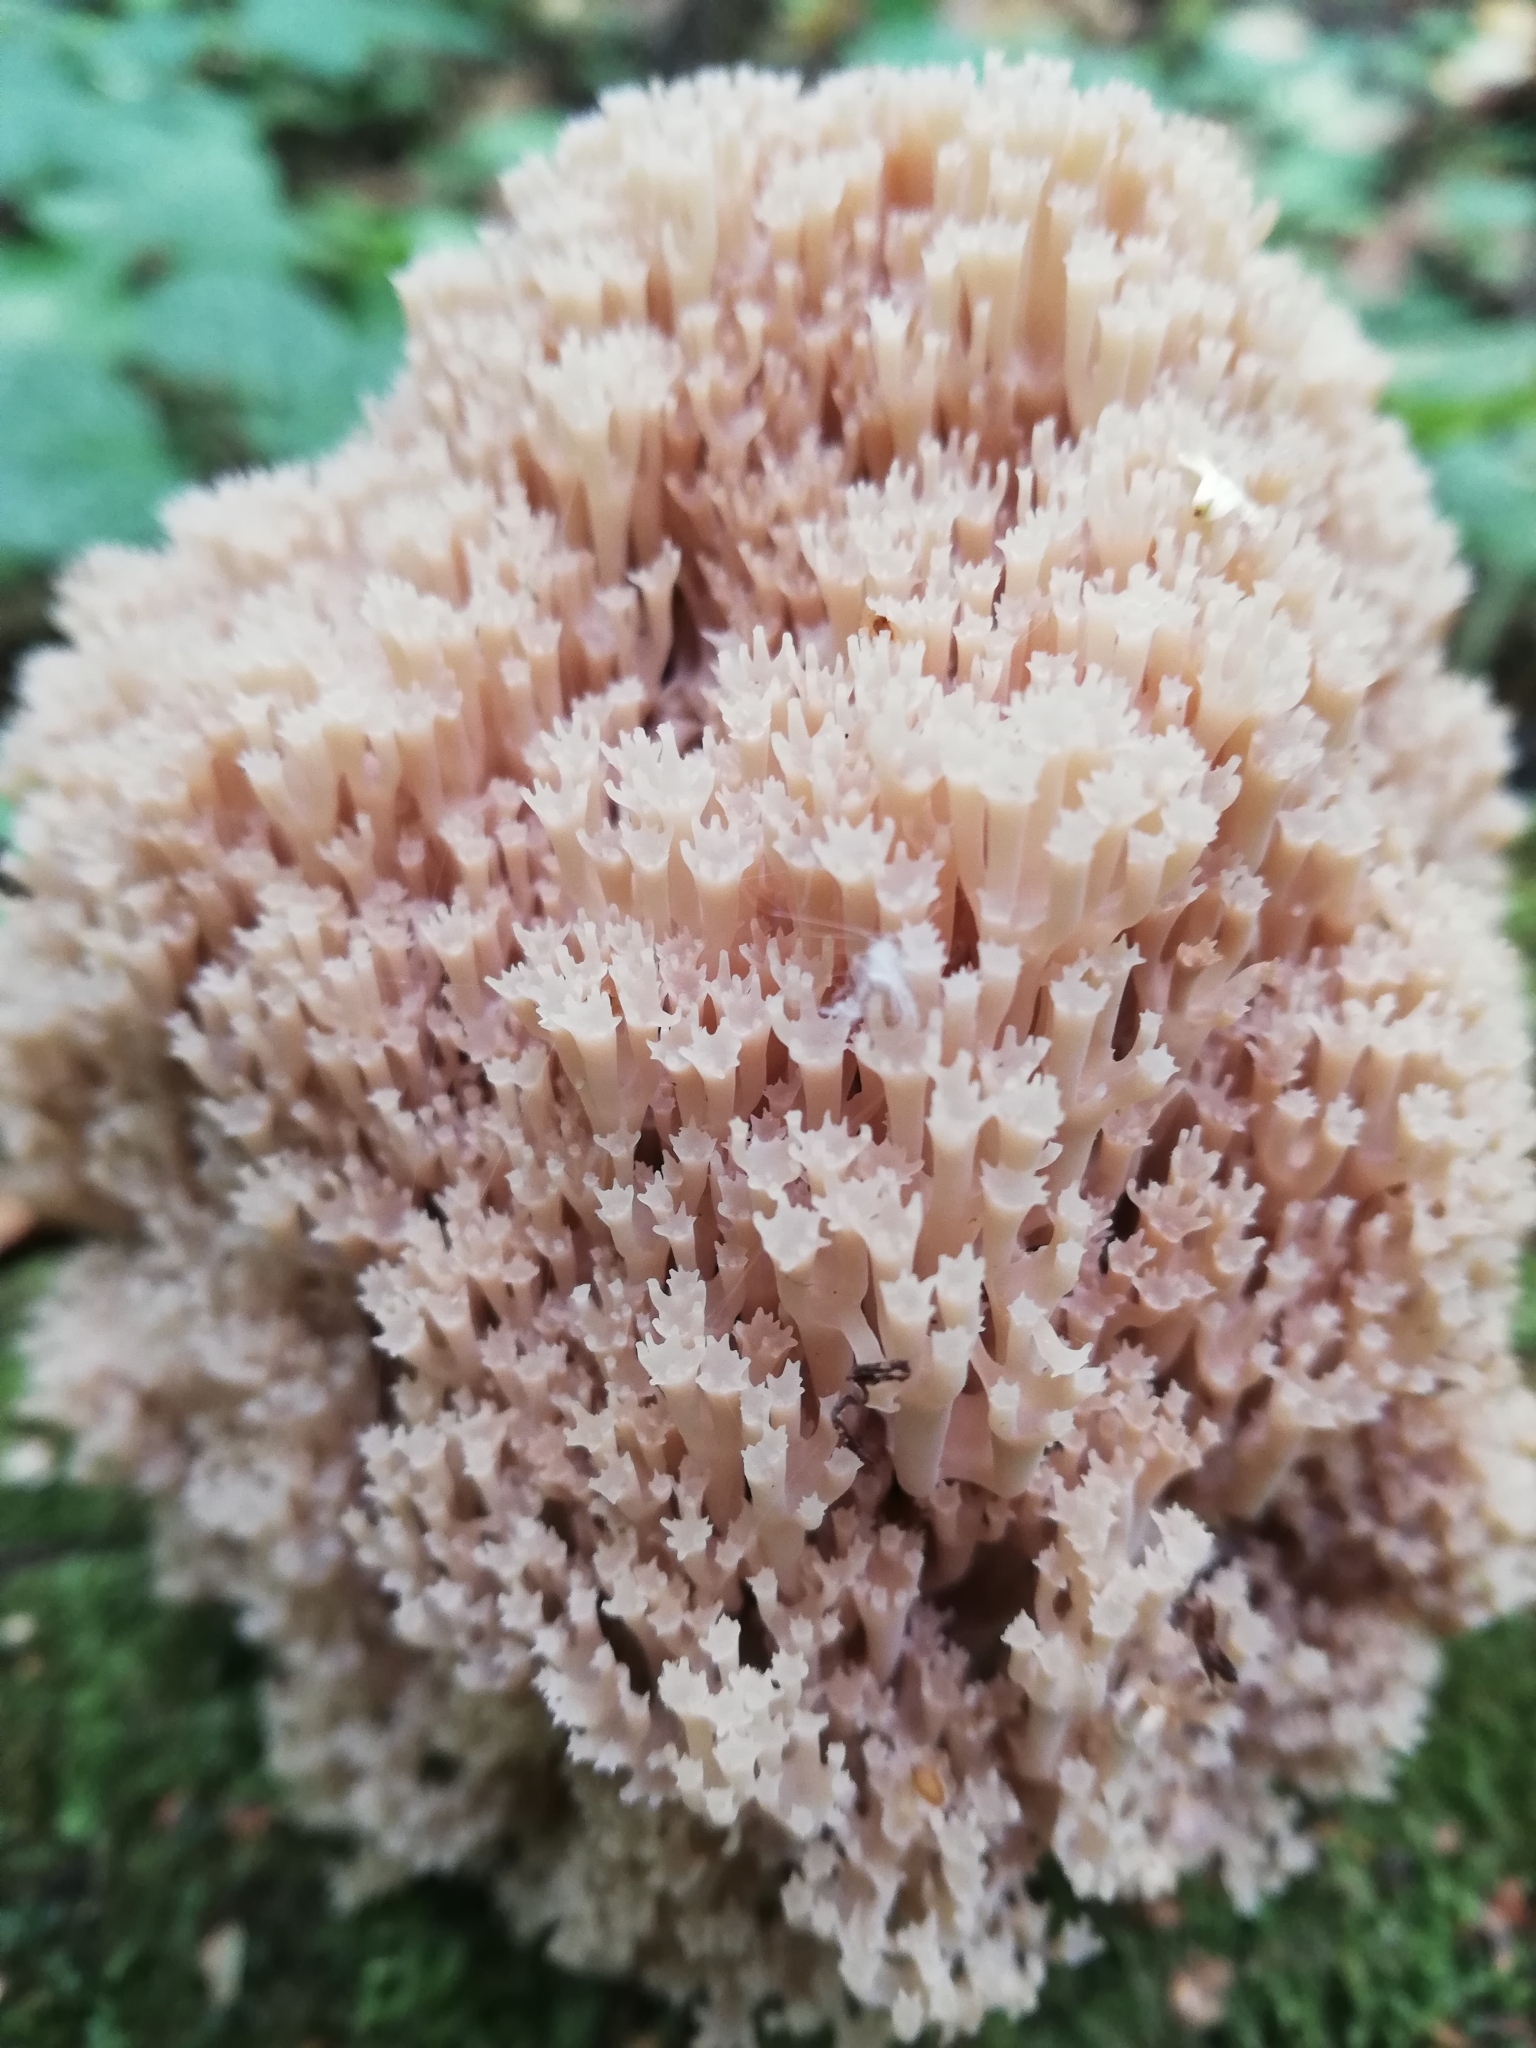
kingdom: Fungi
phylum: Basidiomycota
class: Agaricomycetes
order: Russulales
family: Auriscalpiaceae
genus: Artomyces
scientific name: Artomyces pyxidatus
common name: Crown-tipped coral fungus
